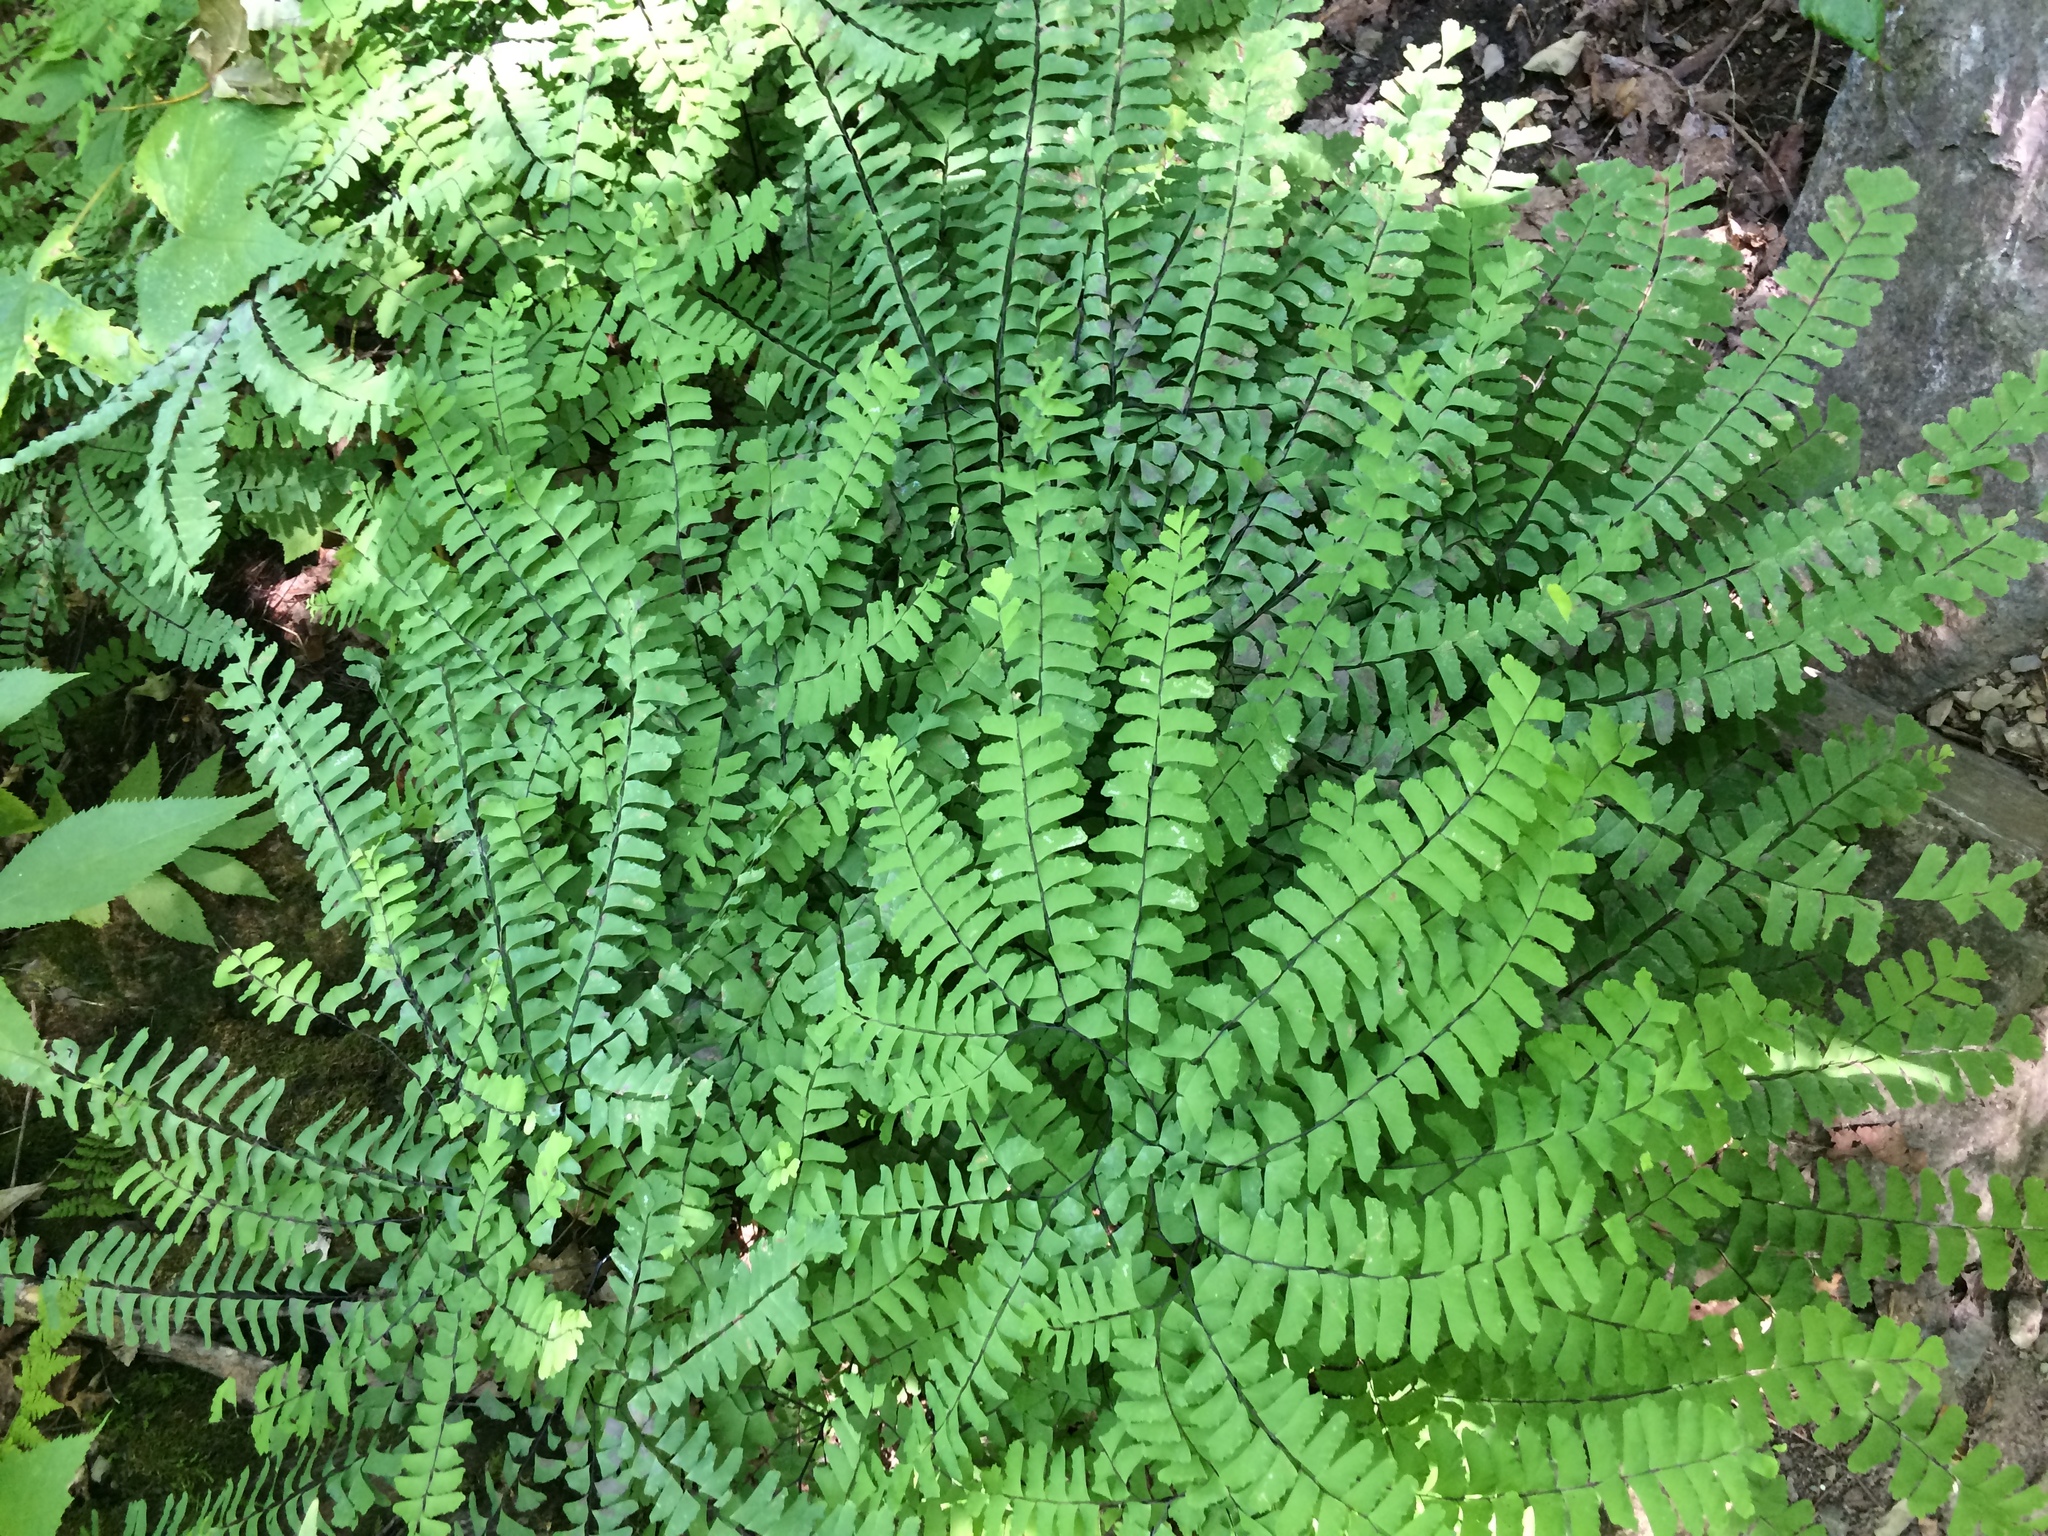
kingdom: Plantae
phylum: Tracheophyta
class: Polypodiopsida
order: Polypodiales
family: Pteridaceae
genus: Adiantum
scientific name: Adiantum pedatum
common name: Five-finger fern
